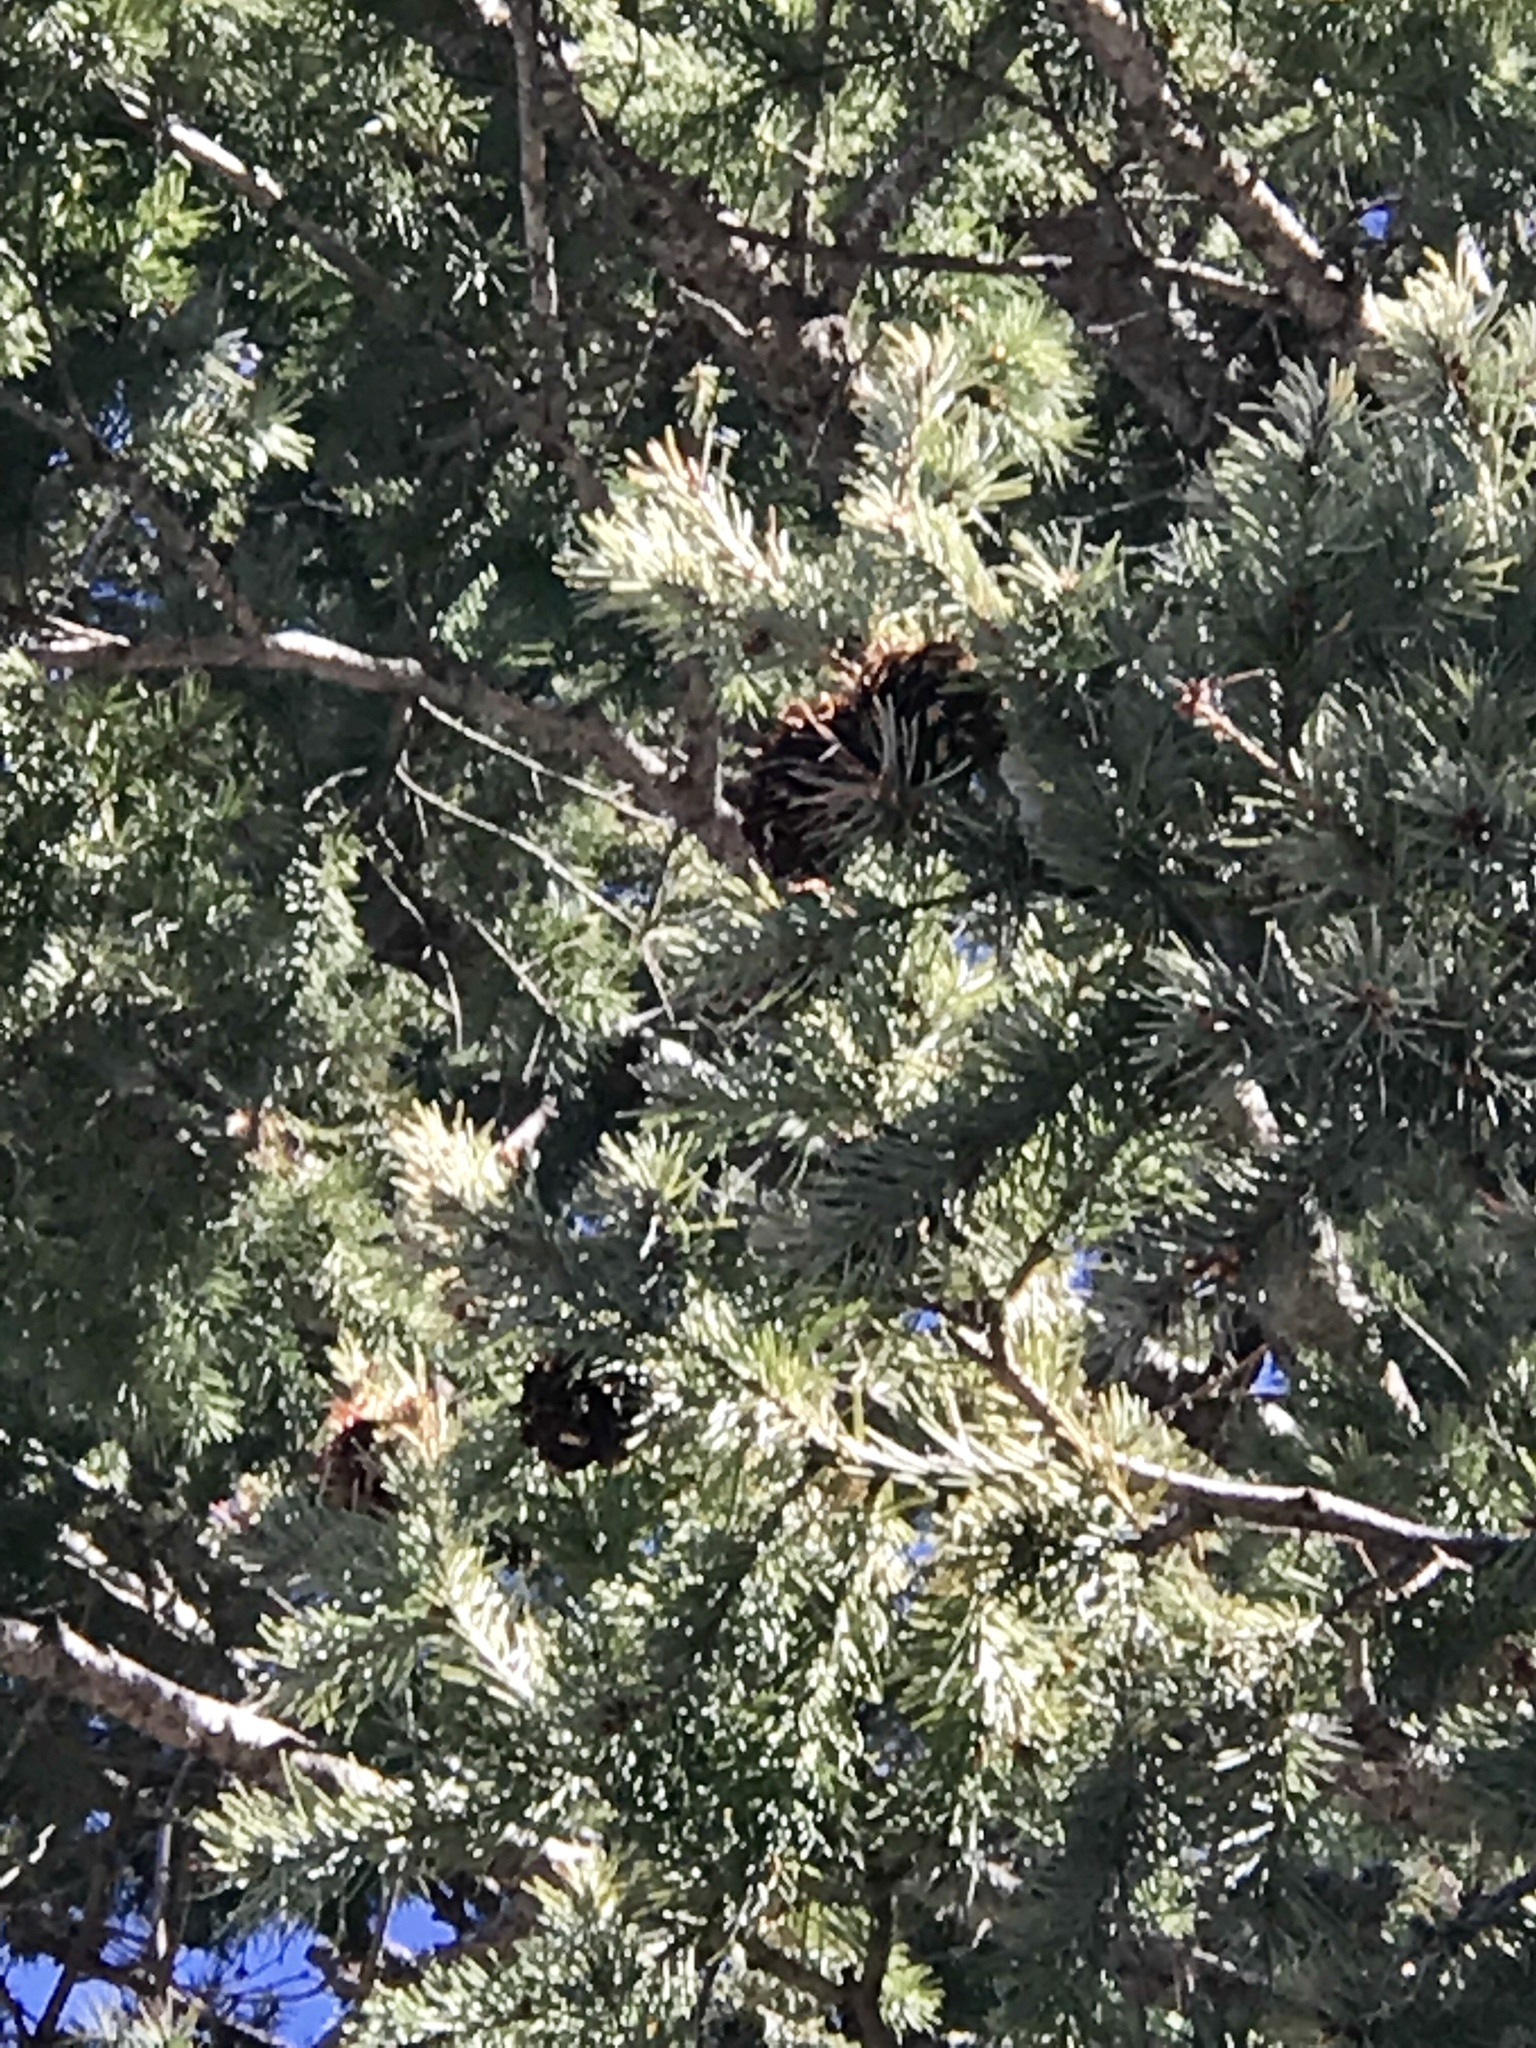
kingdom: Plantae
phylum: Tracheophyta
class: Pinopsida
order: Pinales
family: Pinaceae
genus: Pseudotsuga
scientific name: Pseudotsuga menziesii
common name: Douglas fir
